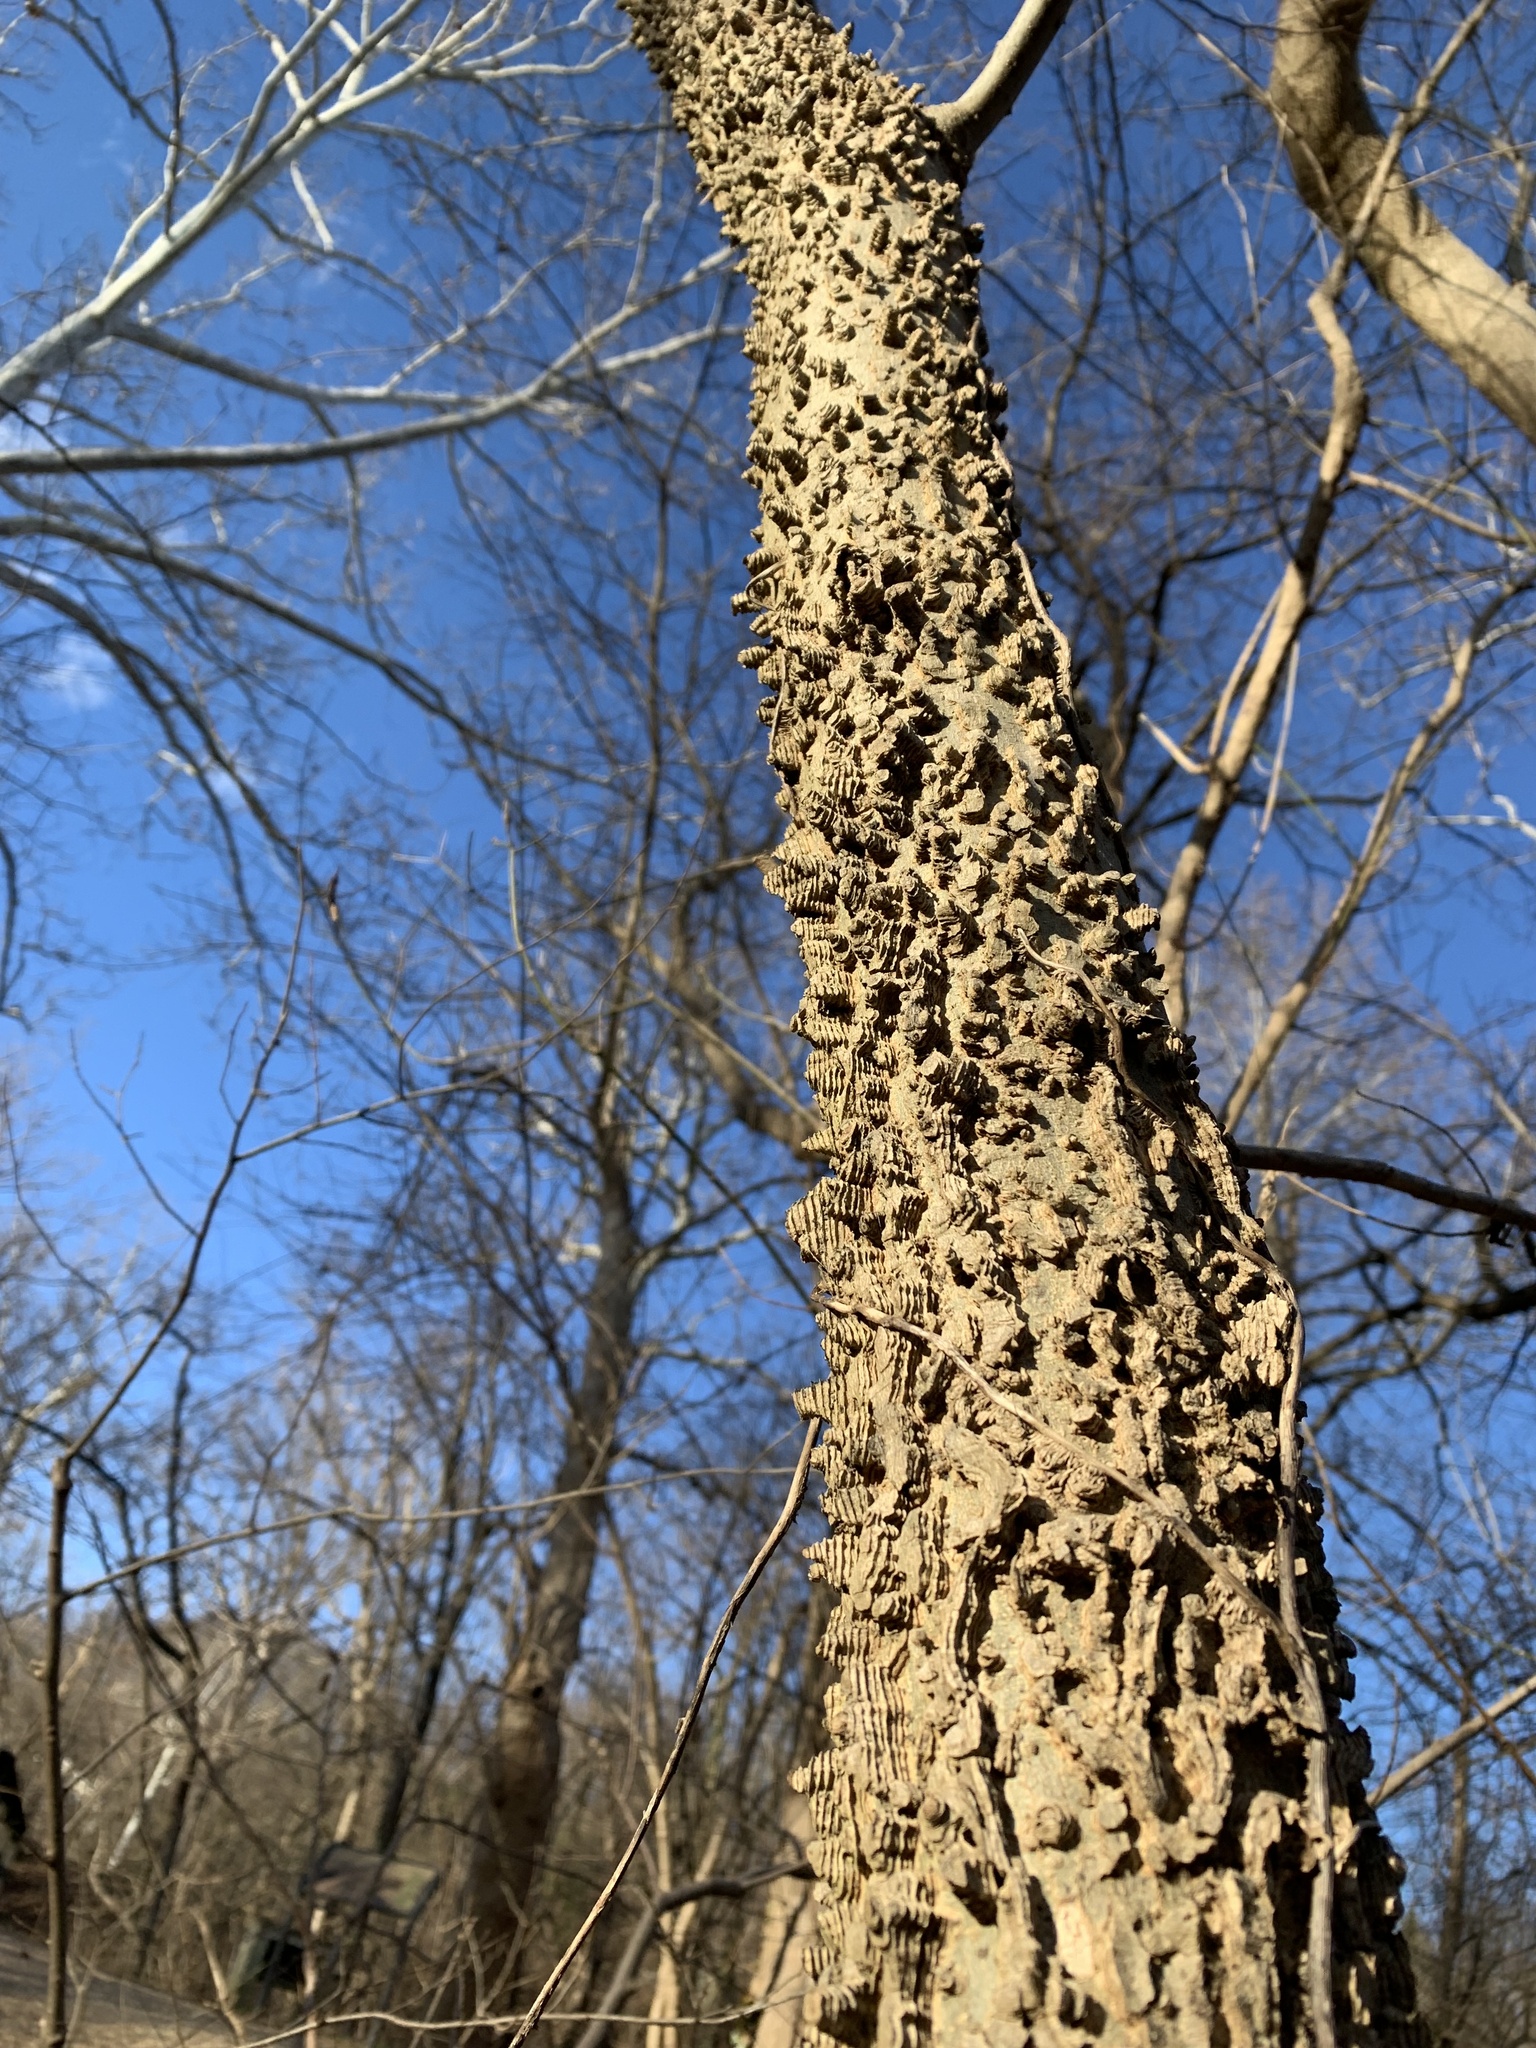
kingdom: Plantae
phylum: Tracheophyta
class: Magnoliopsida
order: Rosales
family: Cannabaceae
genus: Celtis
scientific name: Celtis occidentalis
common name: Common hackberry
